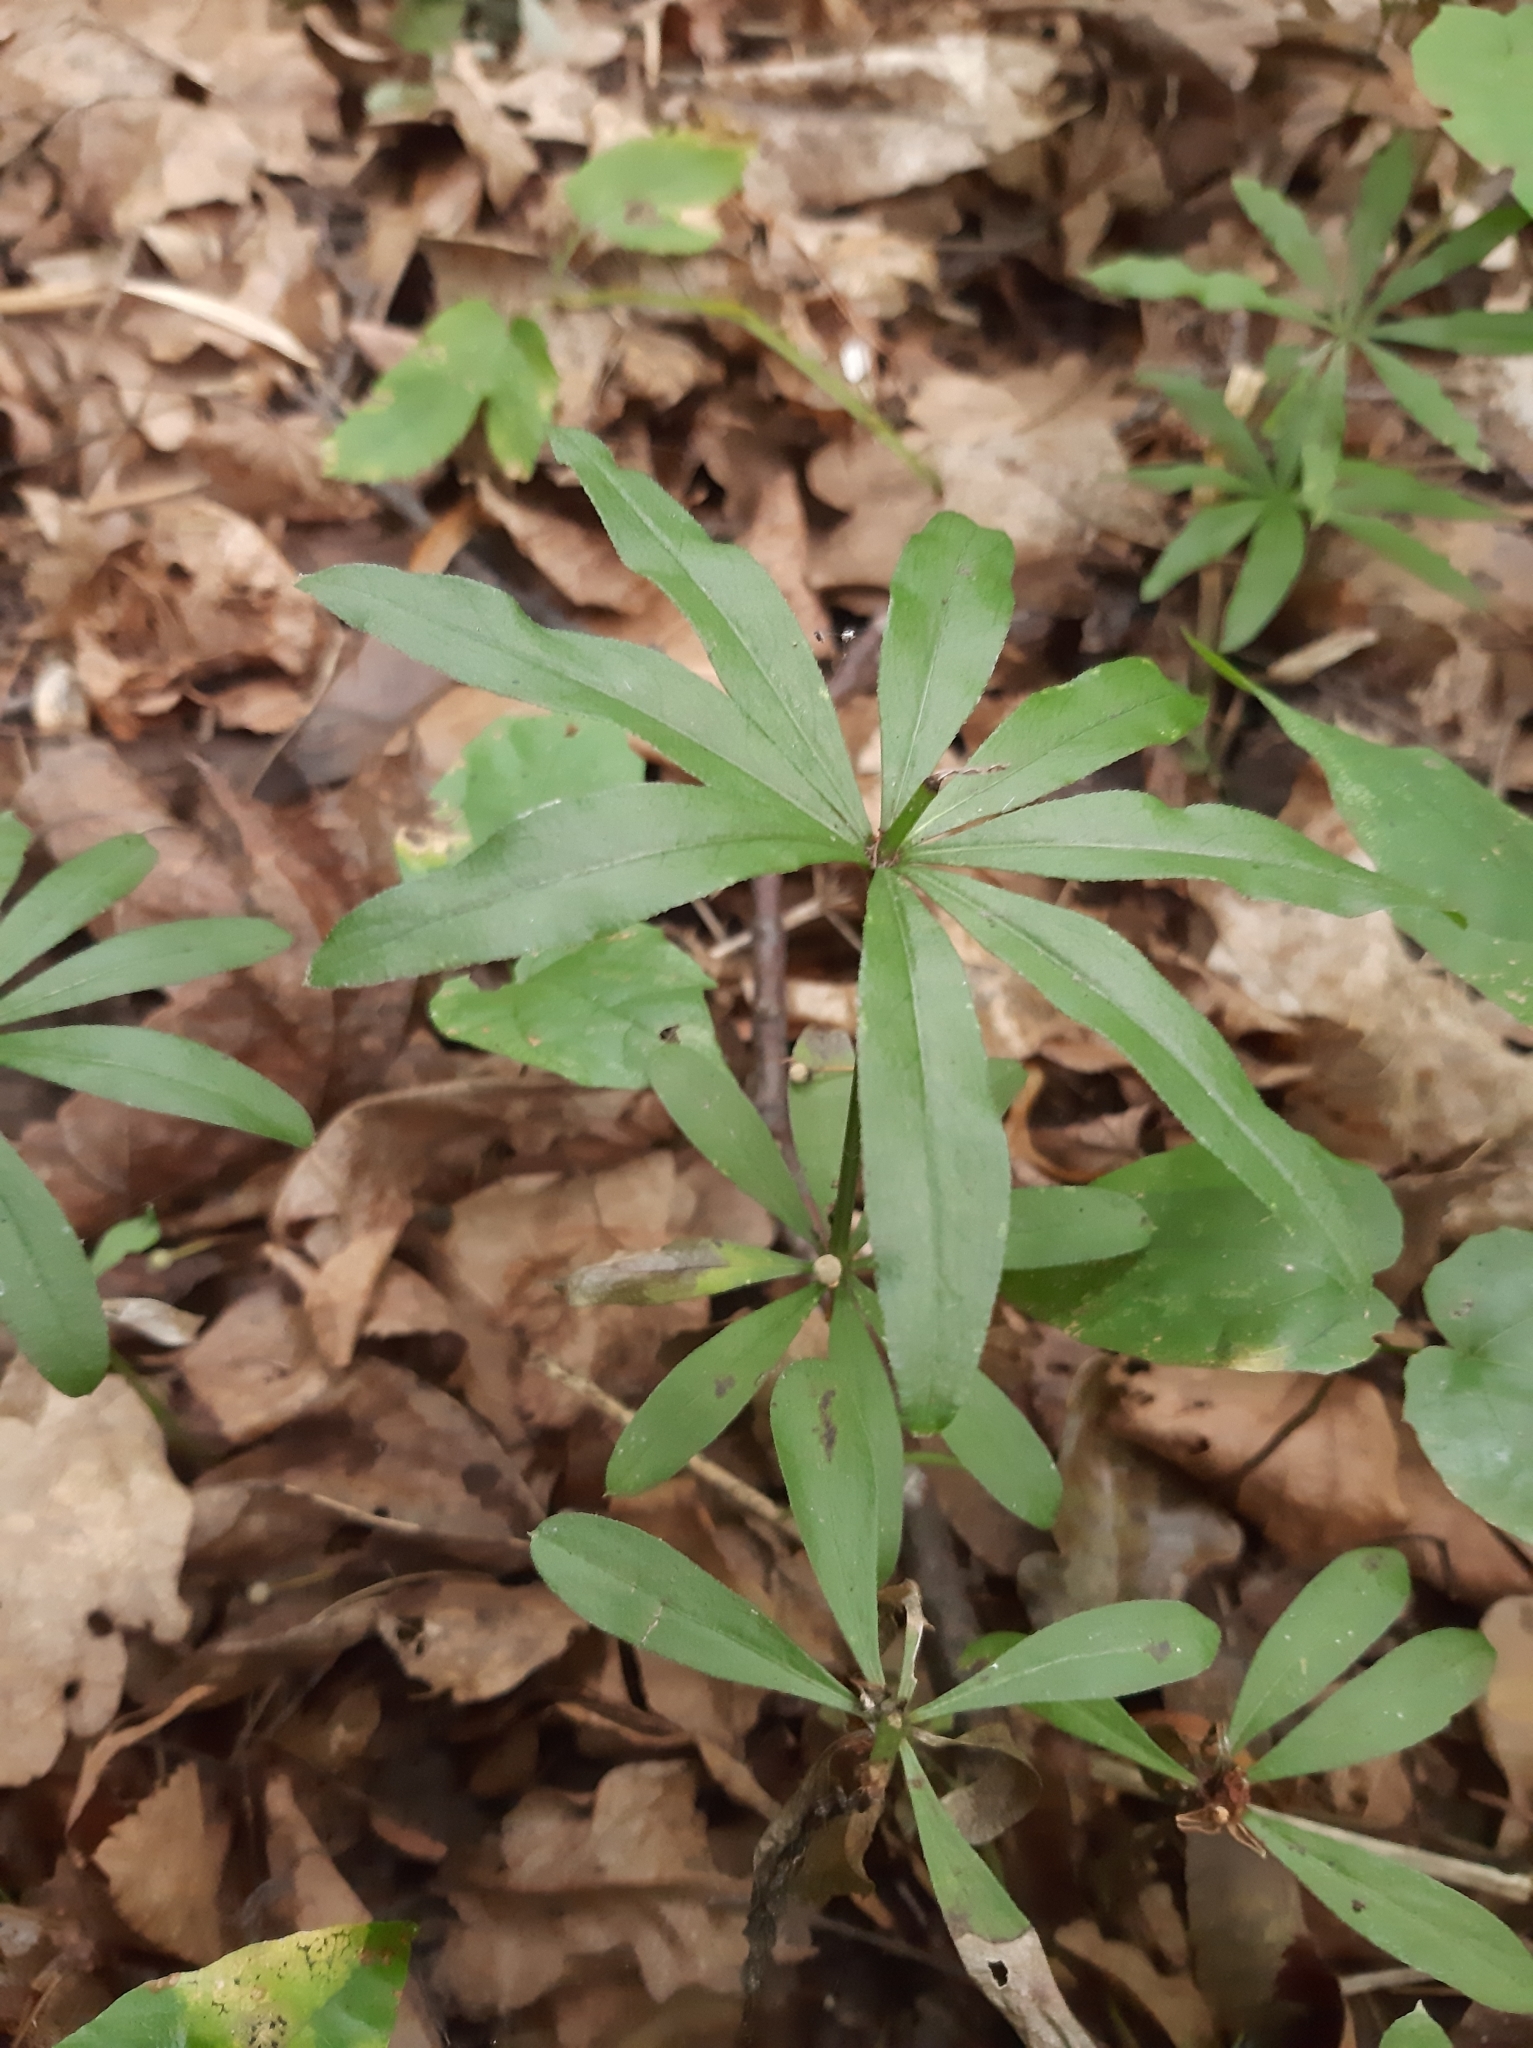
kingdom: Plantae
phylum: Tracheophyta
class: Magnoliopsida
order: Gentianales
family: Rubiaceae
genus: Galium
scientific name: Galium odoratum
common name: Sweet woodruff
